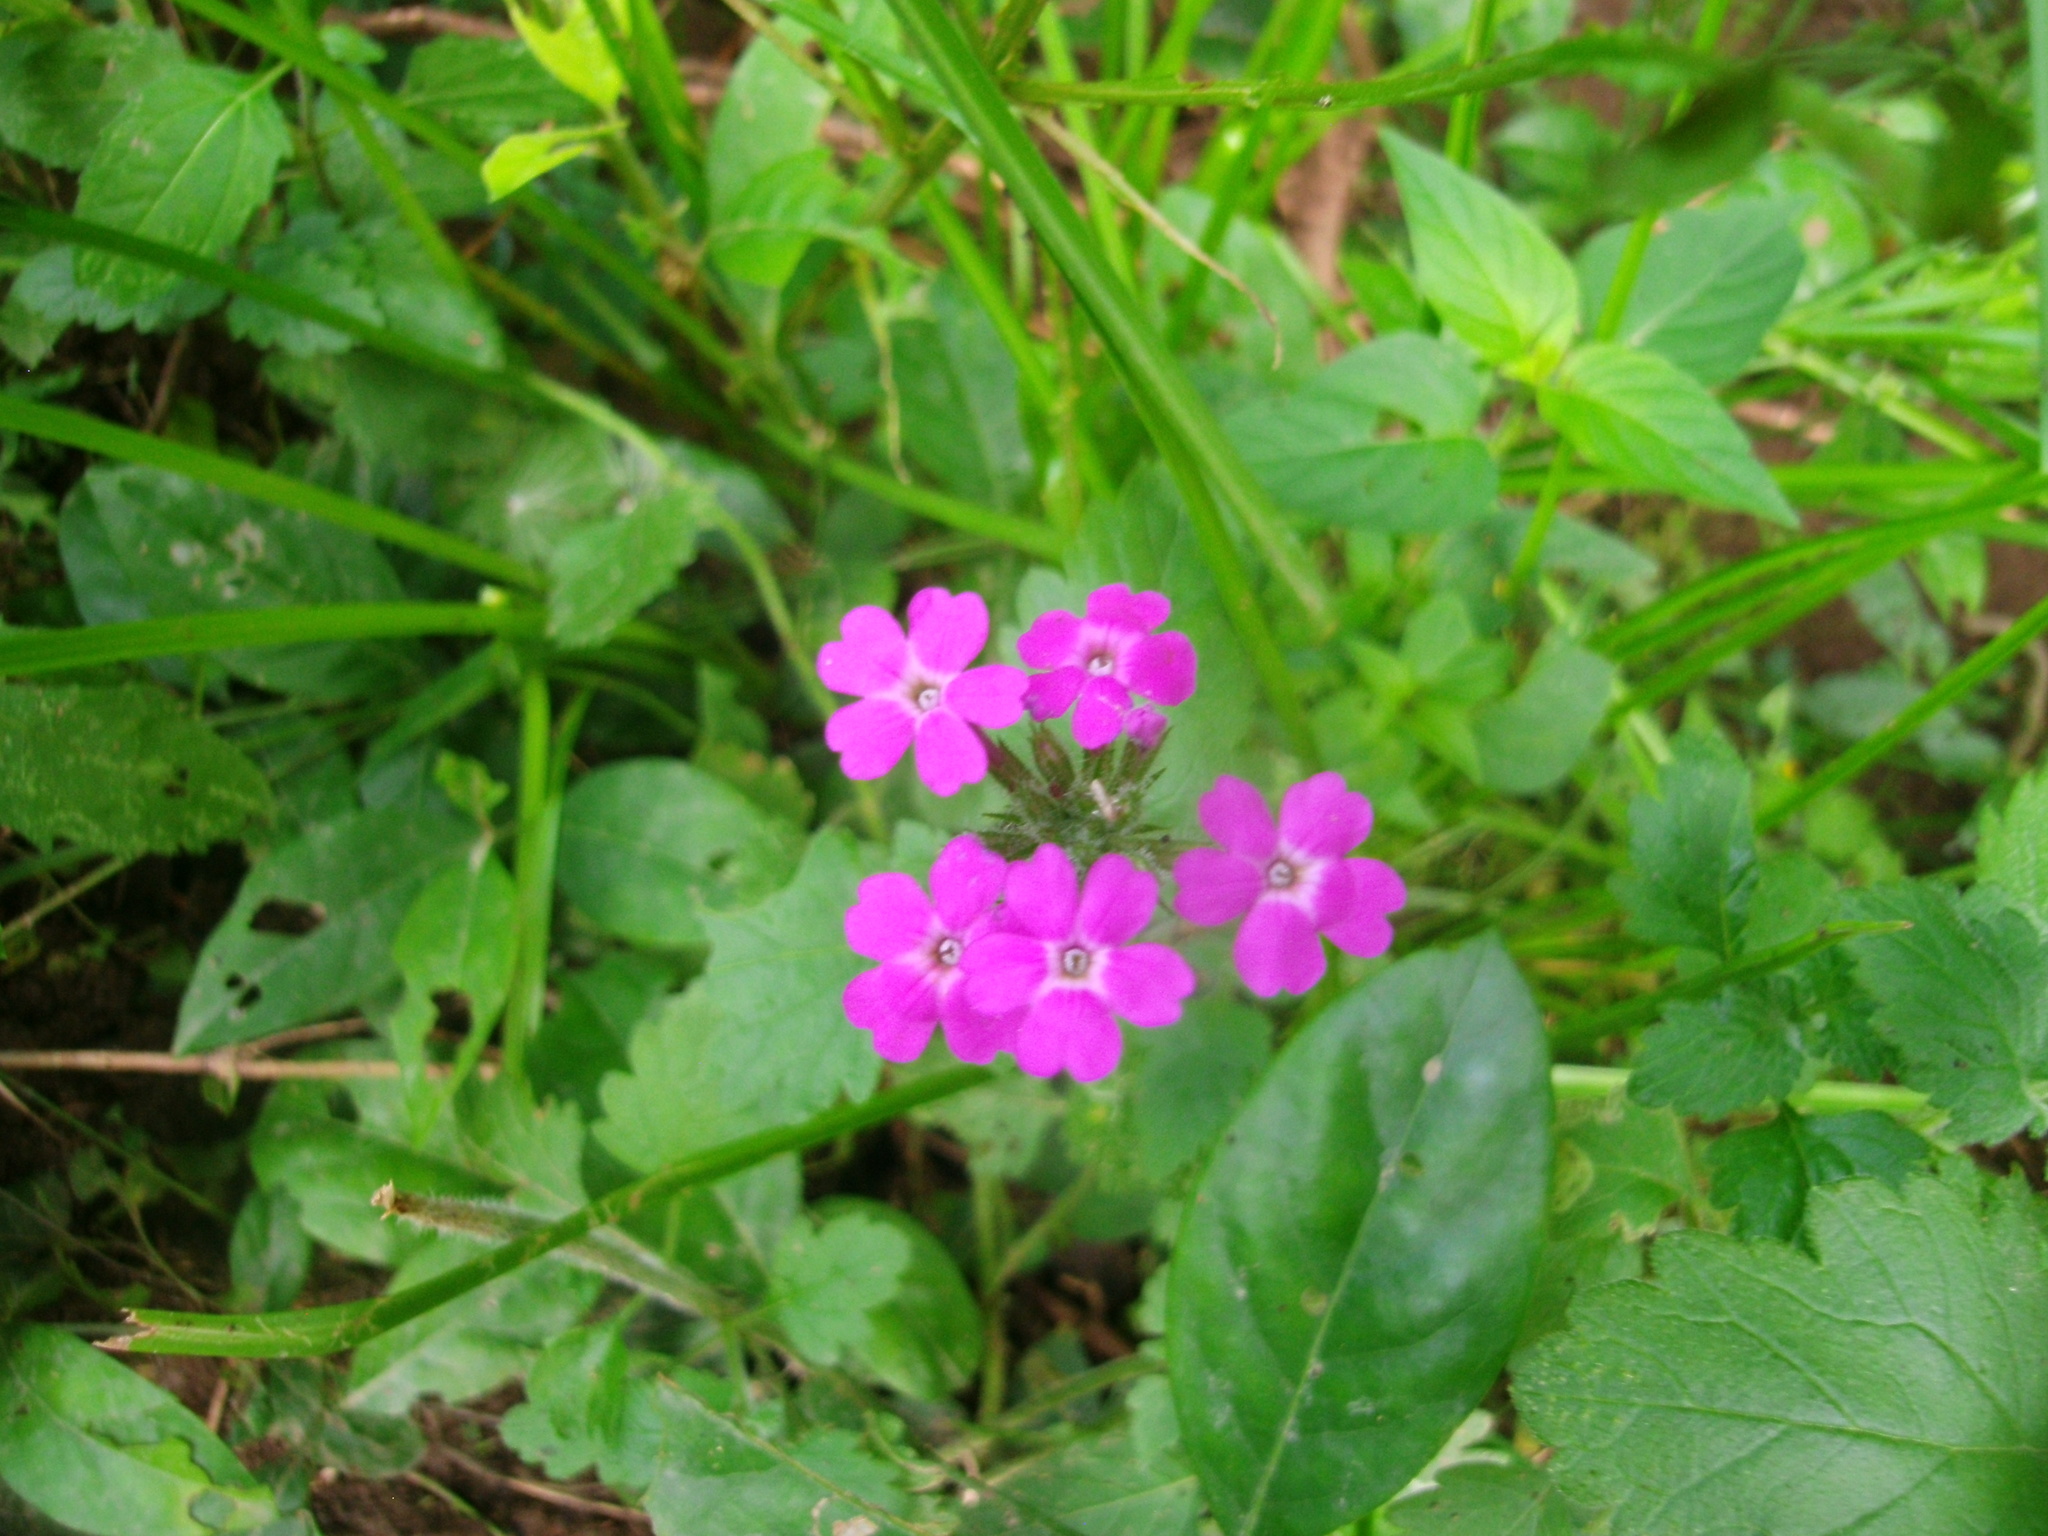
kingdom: Plantae
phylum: Tracheophyta
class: Magnoliopsida
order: Lamiales
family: Verbenaceae
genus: Verbena
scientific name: Verbena canadensis
